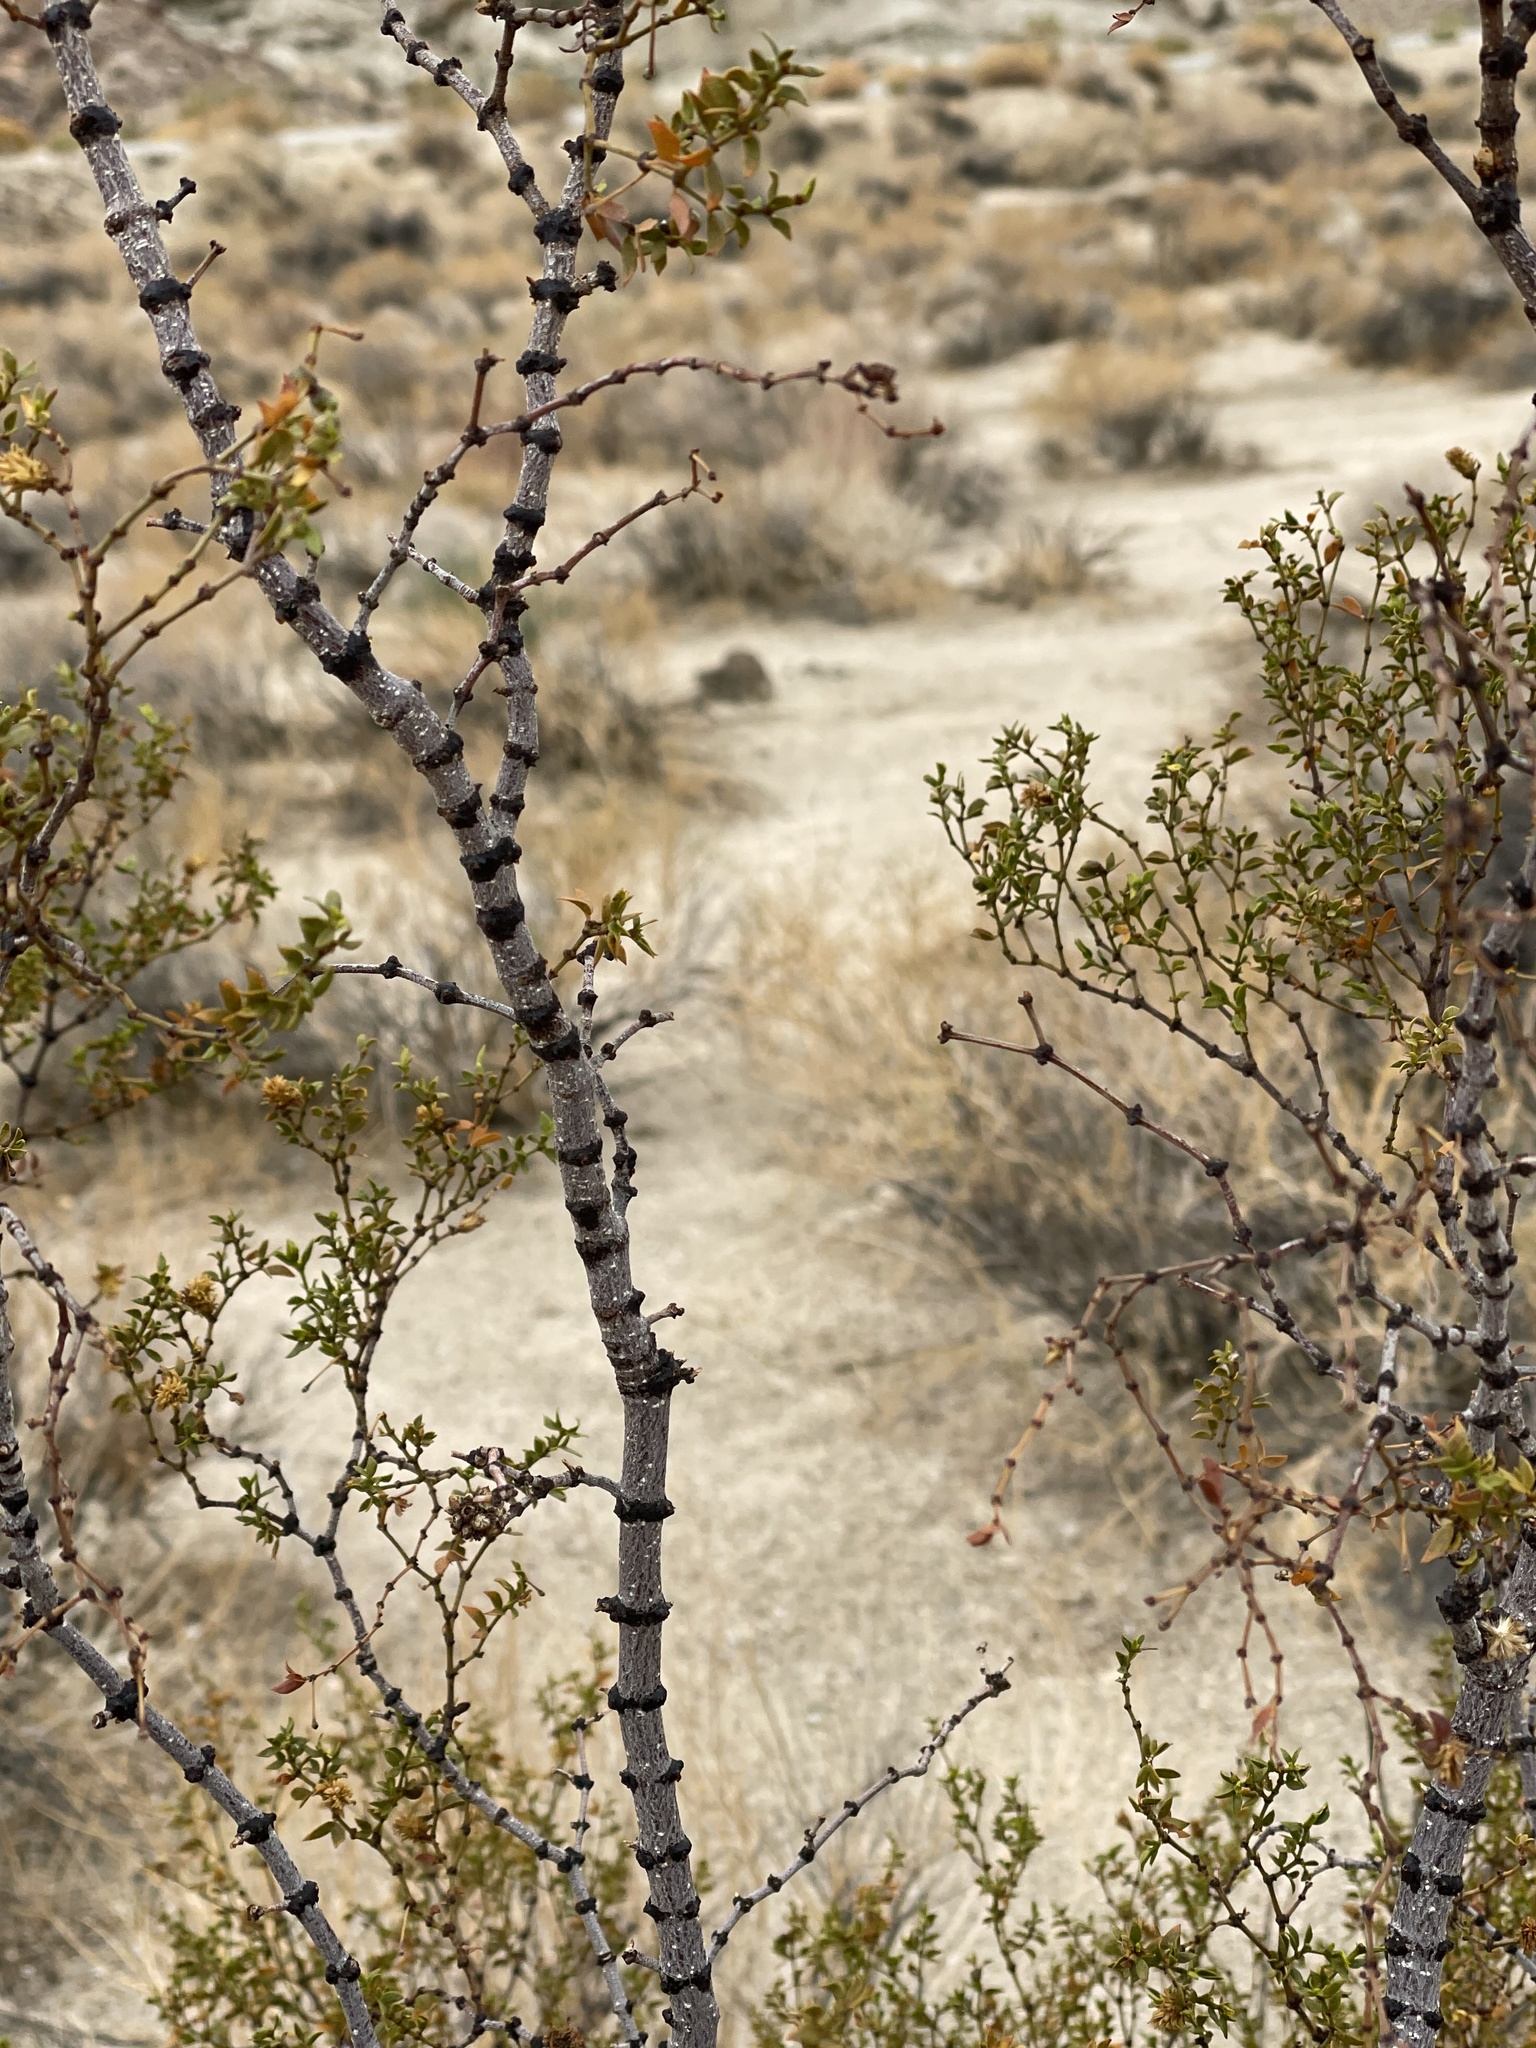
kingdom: Plantae
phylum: Tracheophyta
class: Magnoliopsida
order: Zygophyllales
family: Zygophyllaceae
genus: Larrea
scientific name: Larrea tridentata
